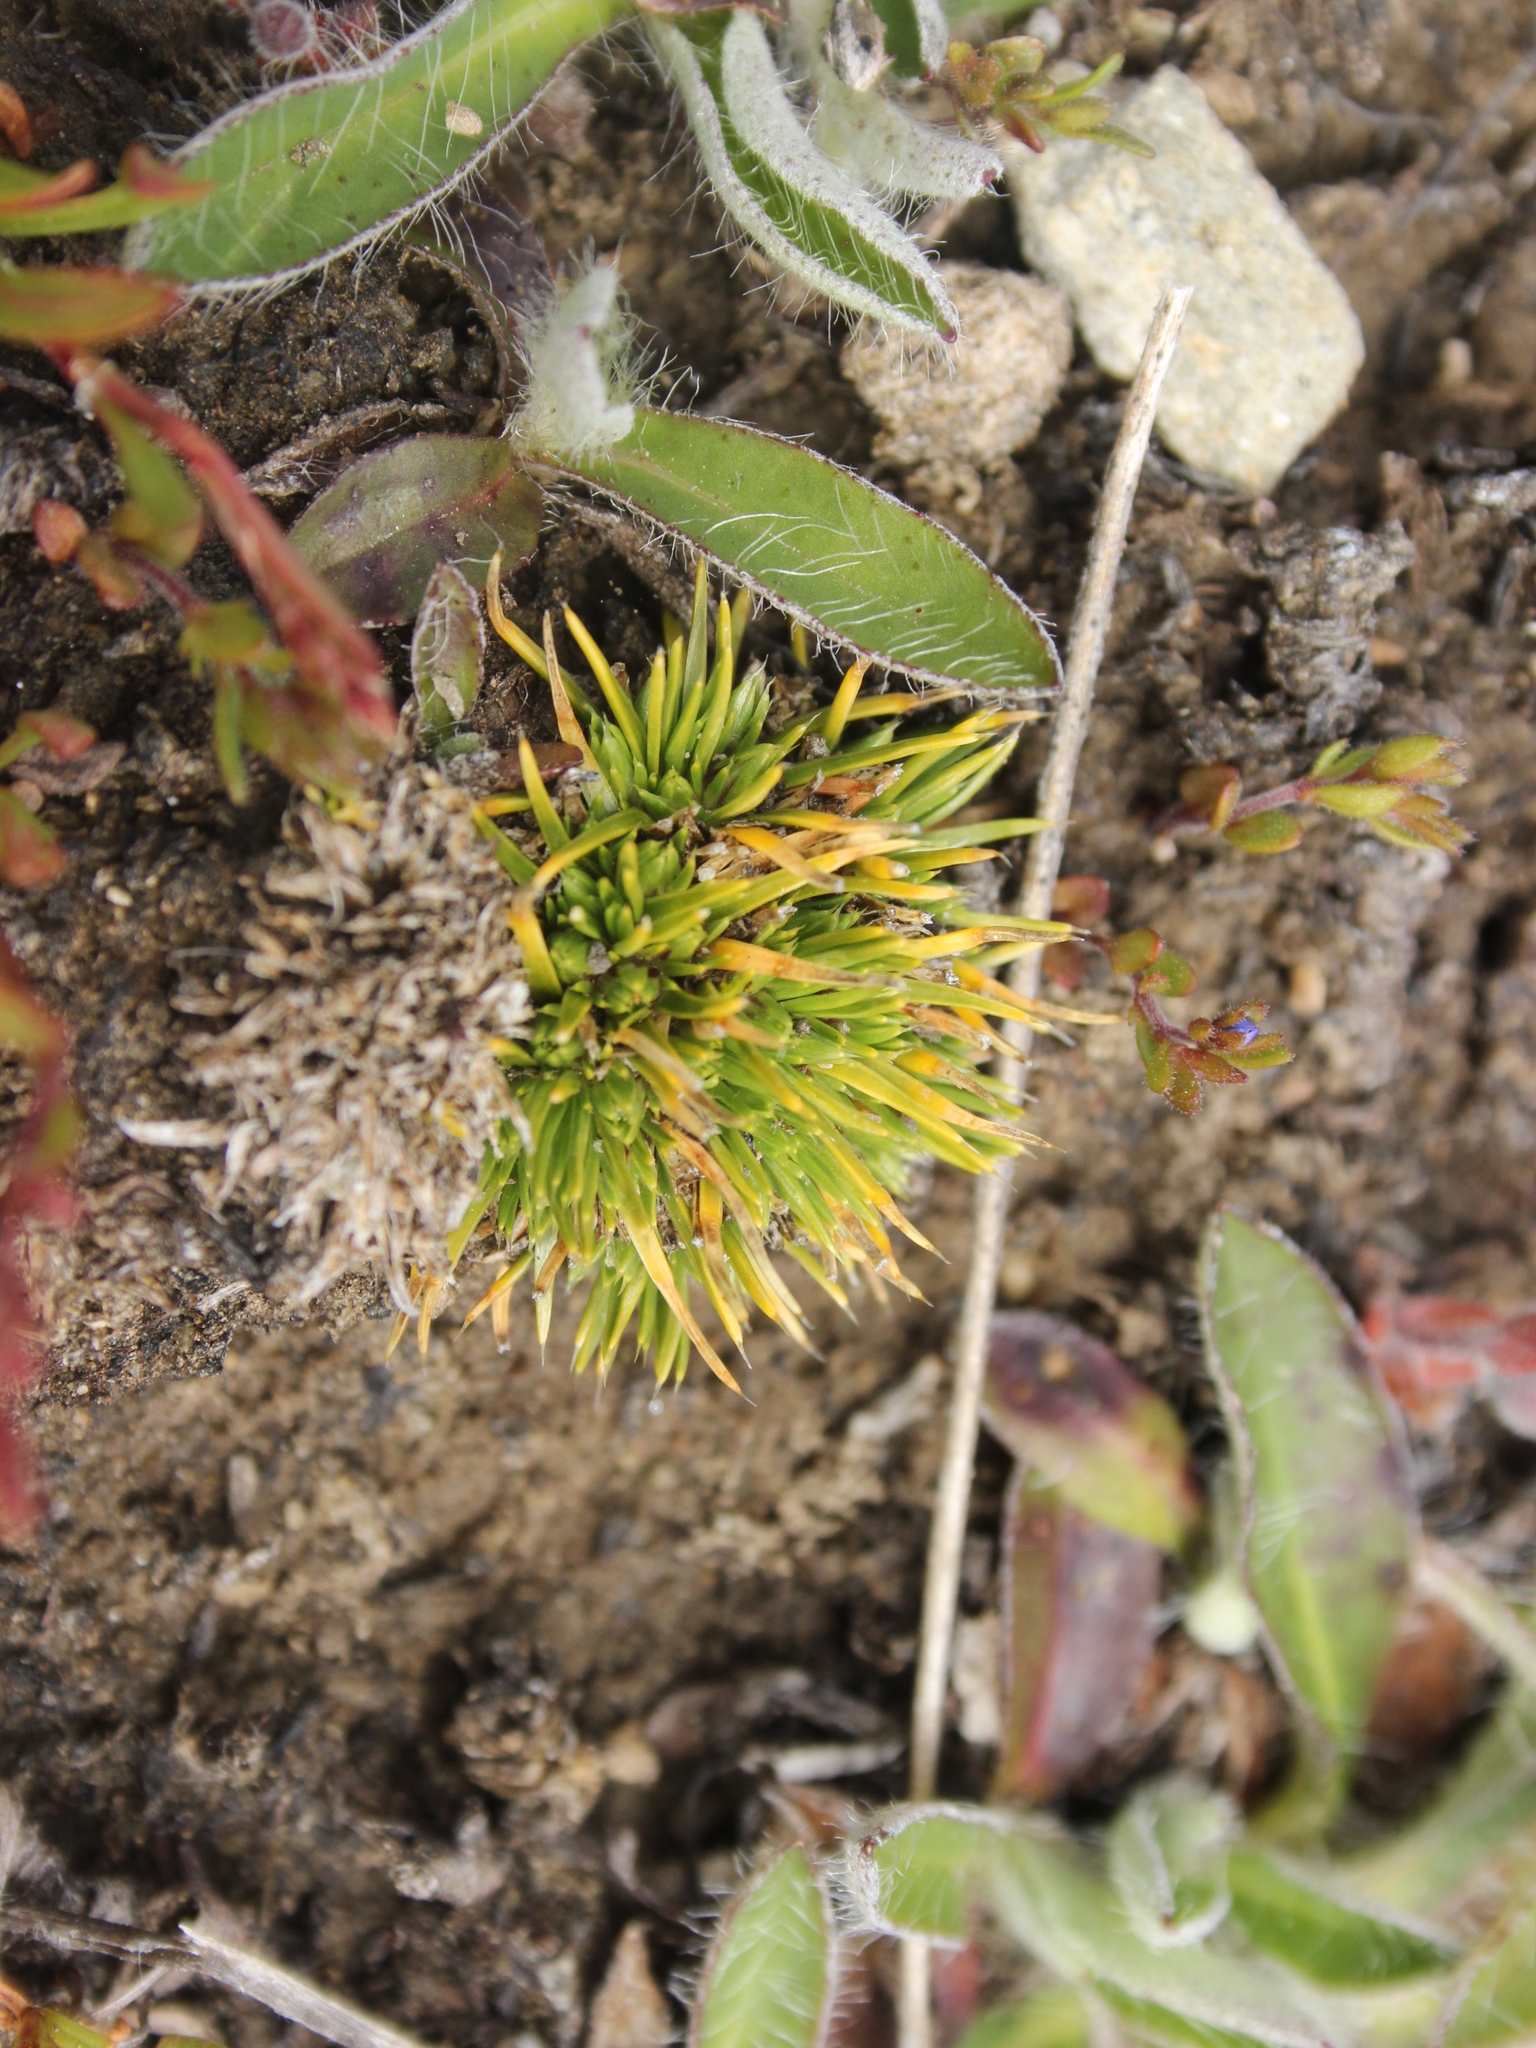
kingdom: Plantae
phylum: Tracheophyta
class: Magnoliopsida
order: Caryophyllales
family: Caryophyllaceae
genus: Colobanthus
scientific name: Colobanthus strictus
